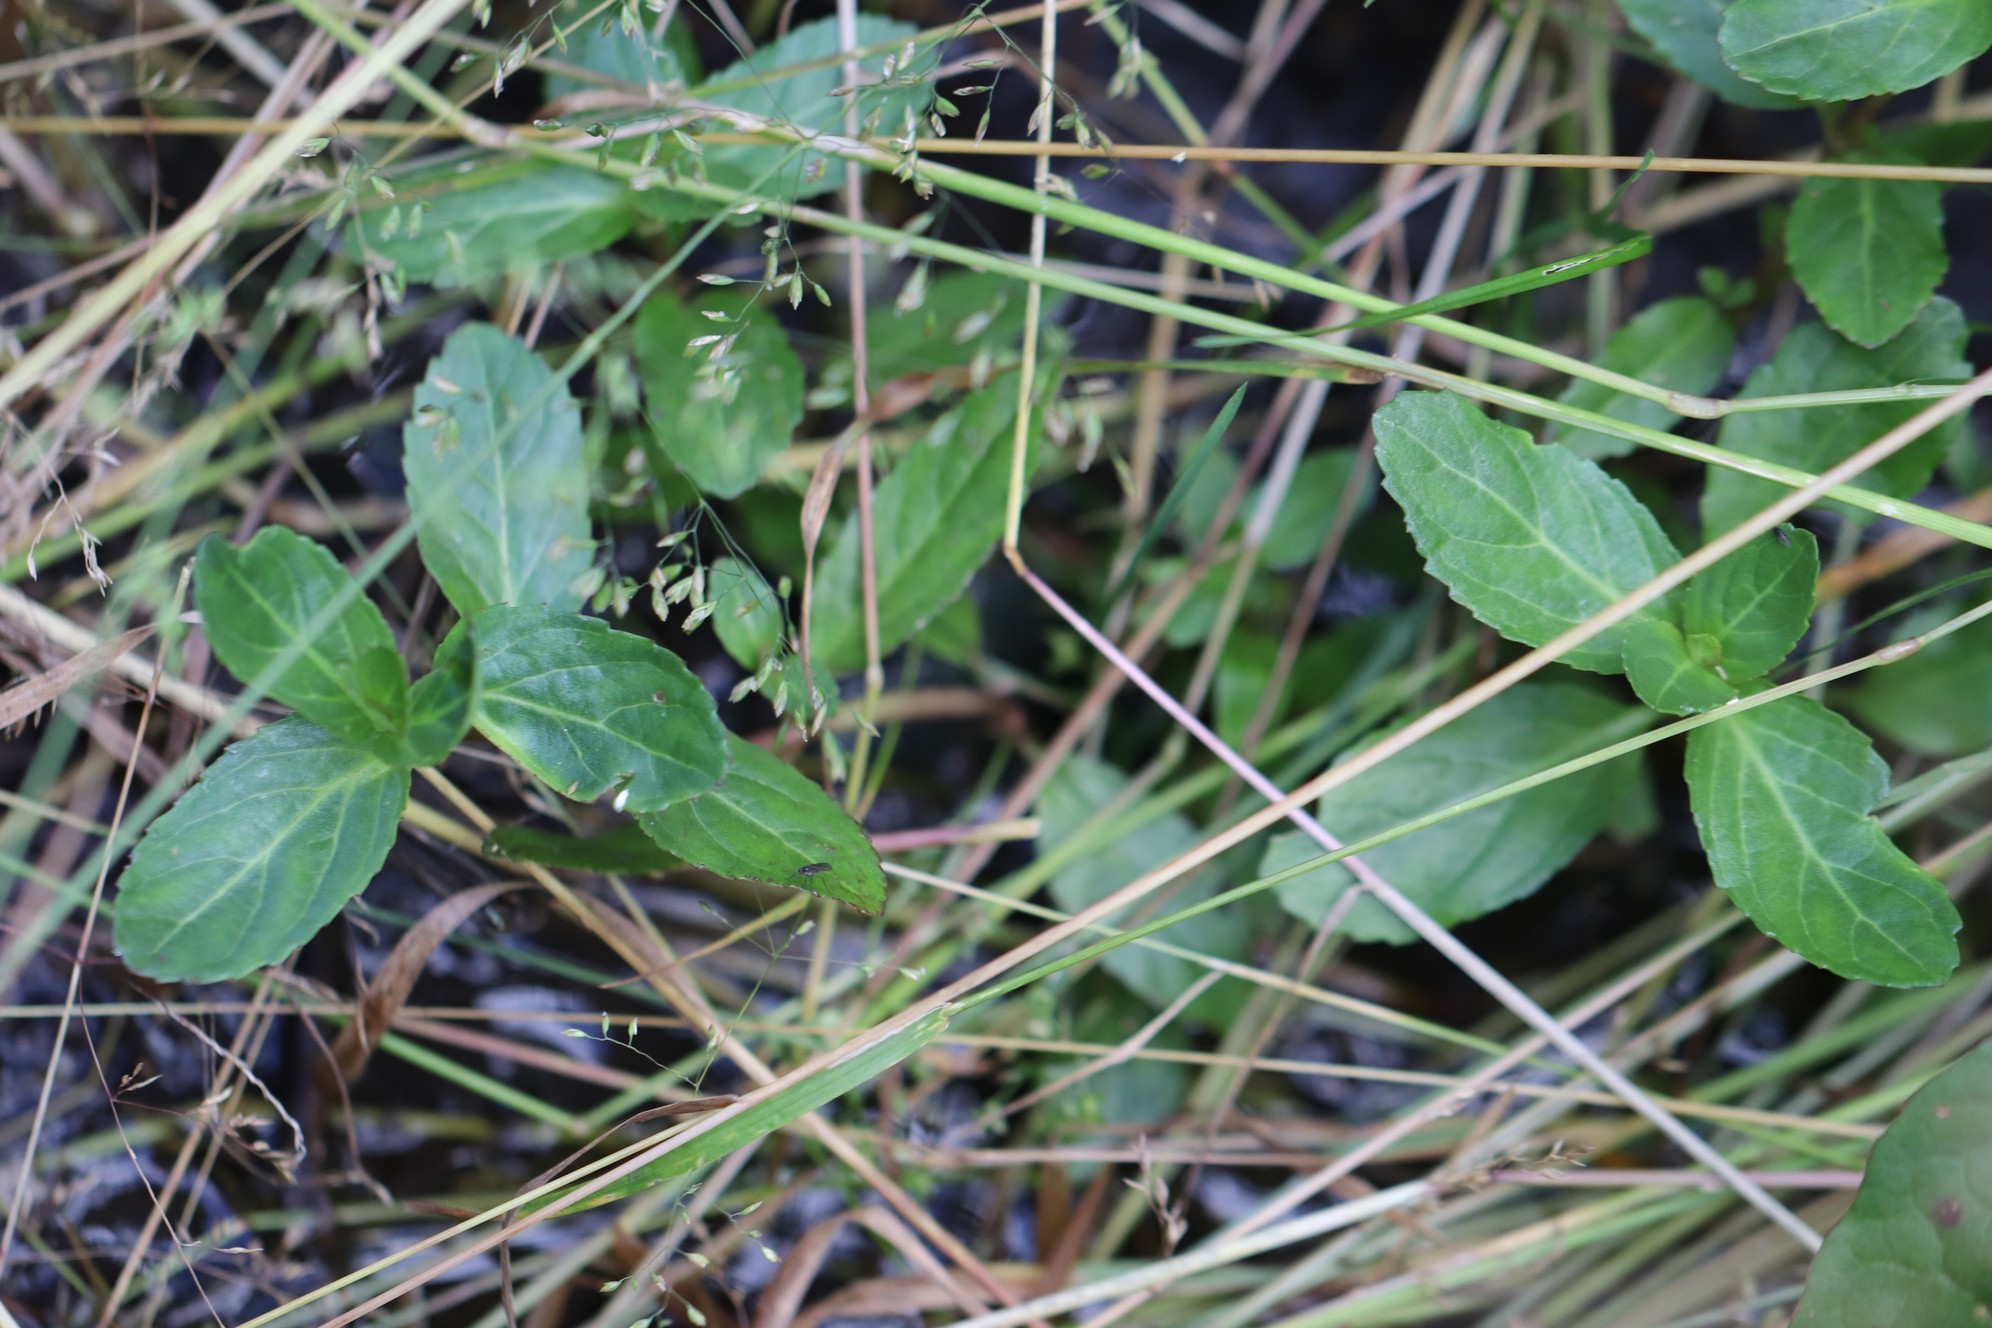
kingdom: Plantae
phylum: Tracheophyta
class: Magnoliopsida
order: Lamiales
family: Plantaginaceae
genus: Veronica
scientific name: Veronica beccabunga
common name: Brooklime
